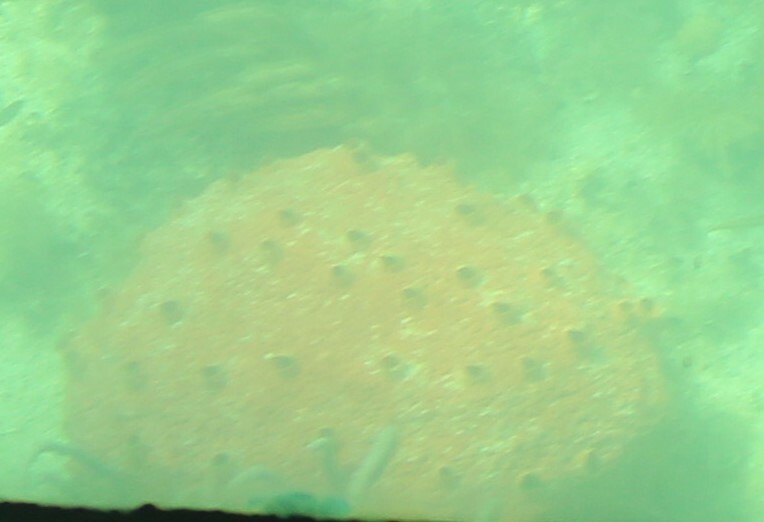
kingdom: Animalia
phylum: Porifera
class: Demospongiae
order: Clionaida
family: Clionaidae
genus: Cliothosa
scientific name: Cliothosa delitrix
